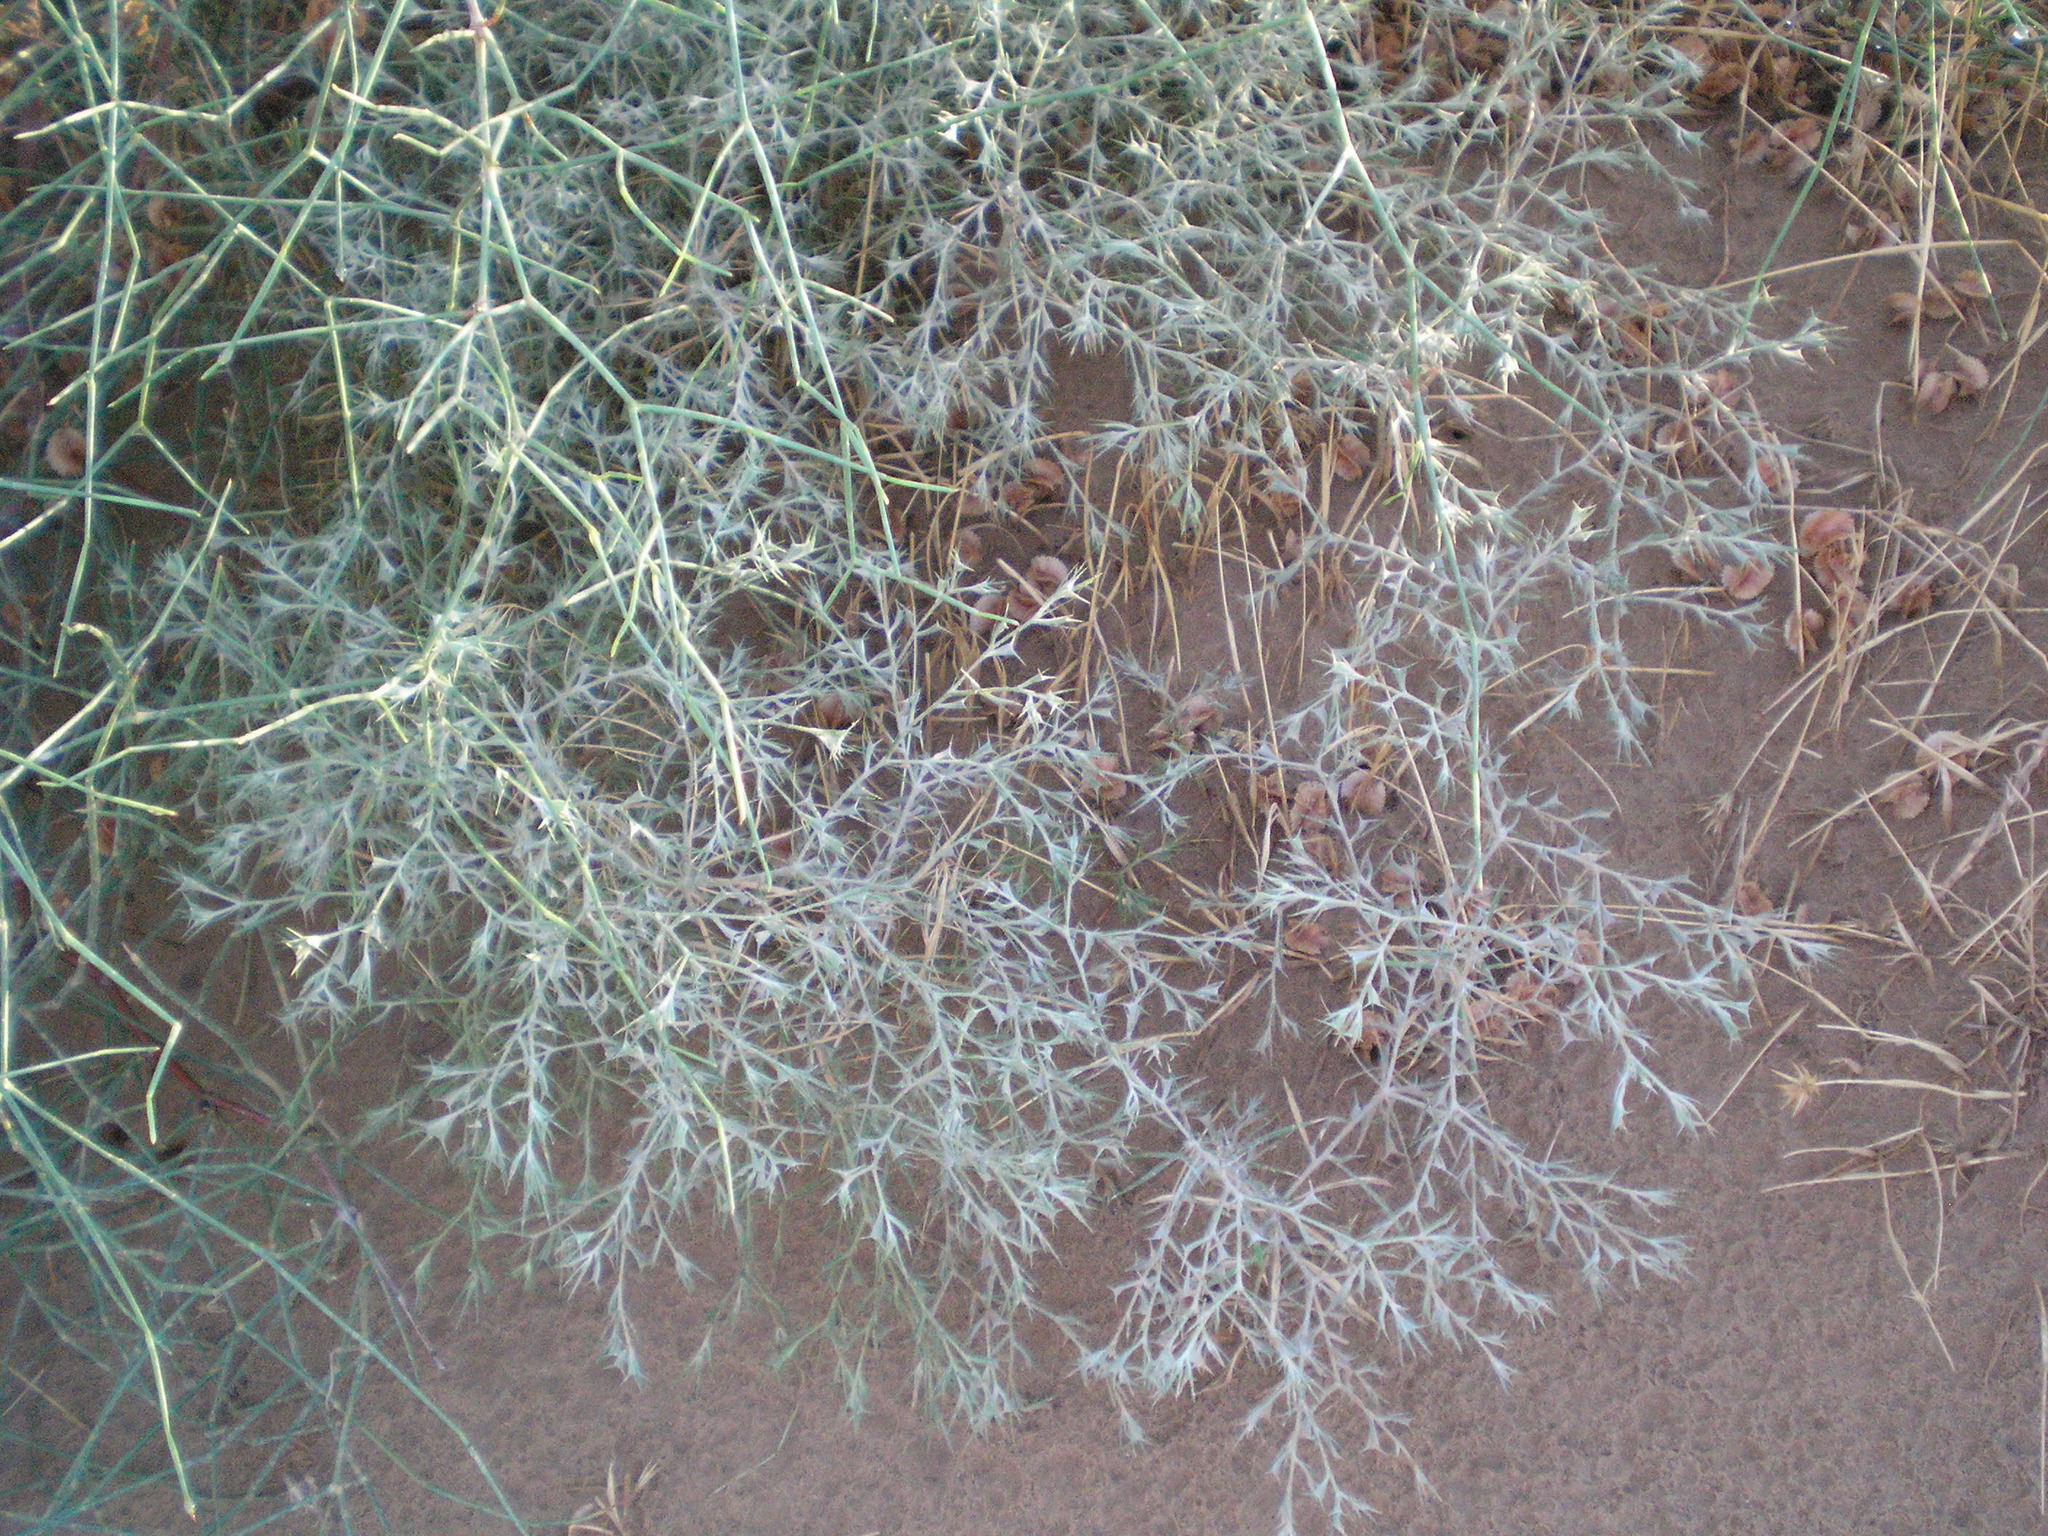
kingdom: Plantae
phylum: Tracheophyta
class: Magnoliopsida
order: Caryophyllales
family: Amaranthaceae
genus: Ceratocarpus
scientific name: Ceratocarpus arenarius
